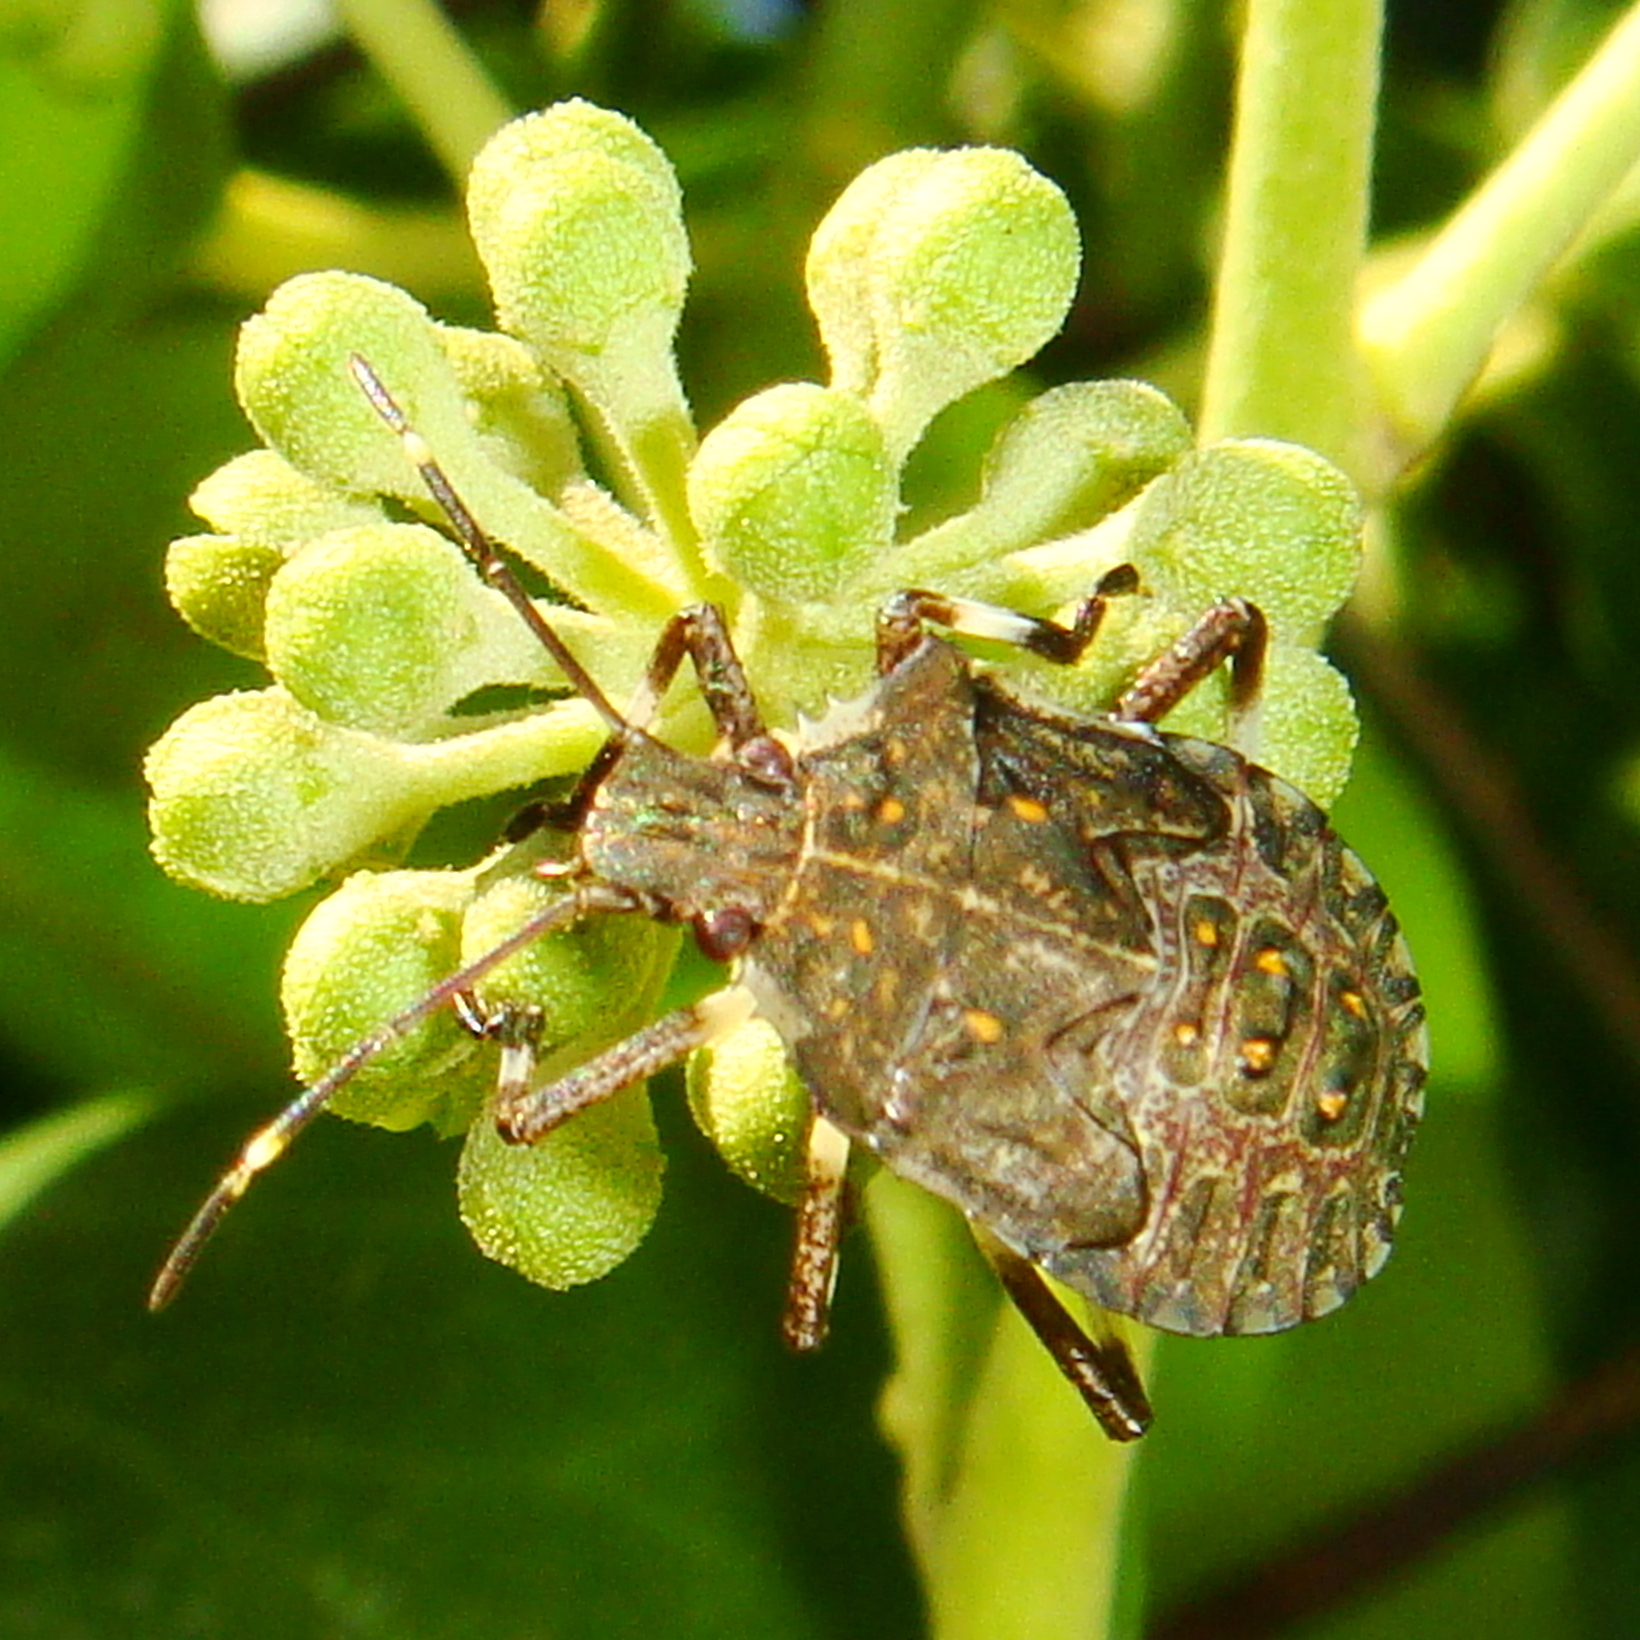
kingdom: Animalia
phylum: Arthropoda
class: Insecta
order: Hemiptera
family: Pentatomidae
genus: Halyomorpha
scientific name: Halyomorpha halys
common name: Brown marmorated stink bug
